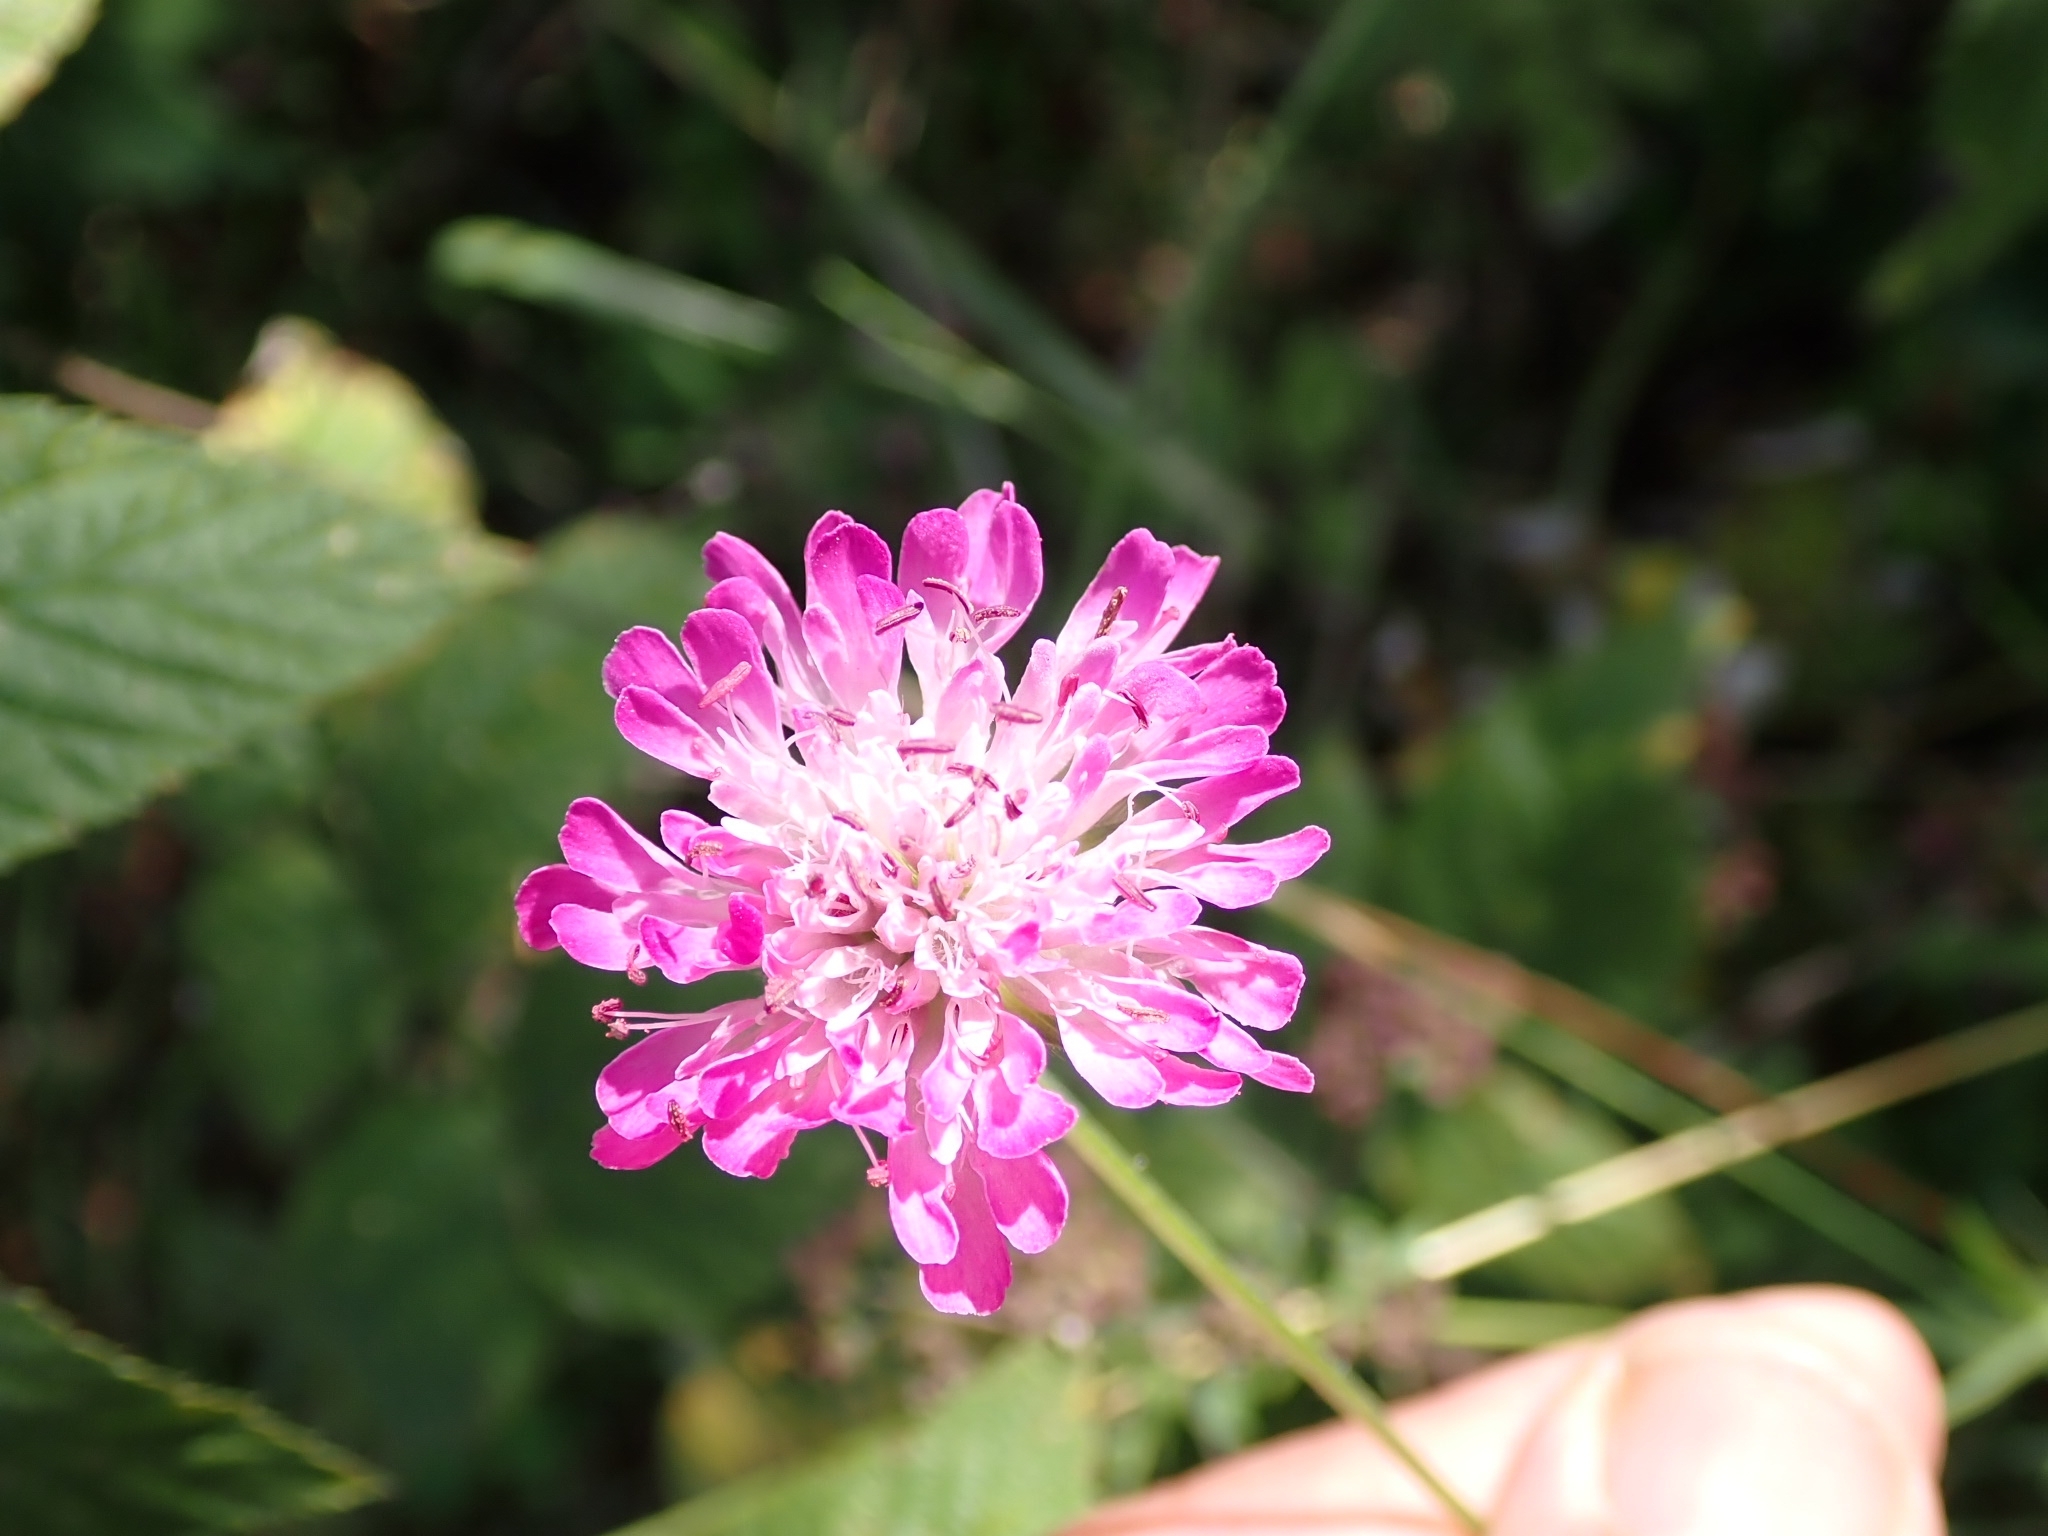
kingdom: Plantae
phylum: Tracheophyta
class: Magnoliopsida
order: Dipsacales
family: Caprifoliaceae
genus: Knautia
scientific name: Knautia arvensis
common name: Field scabiosa
